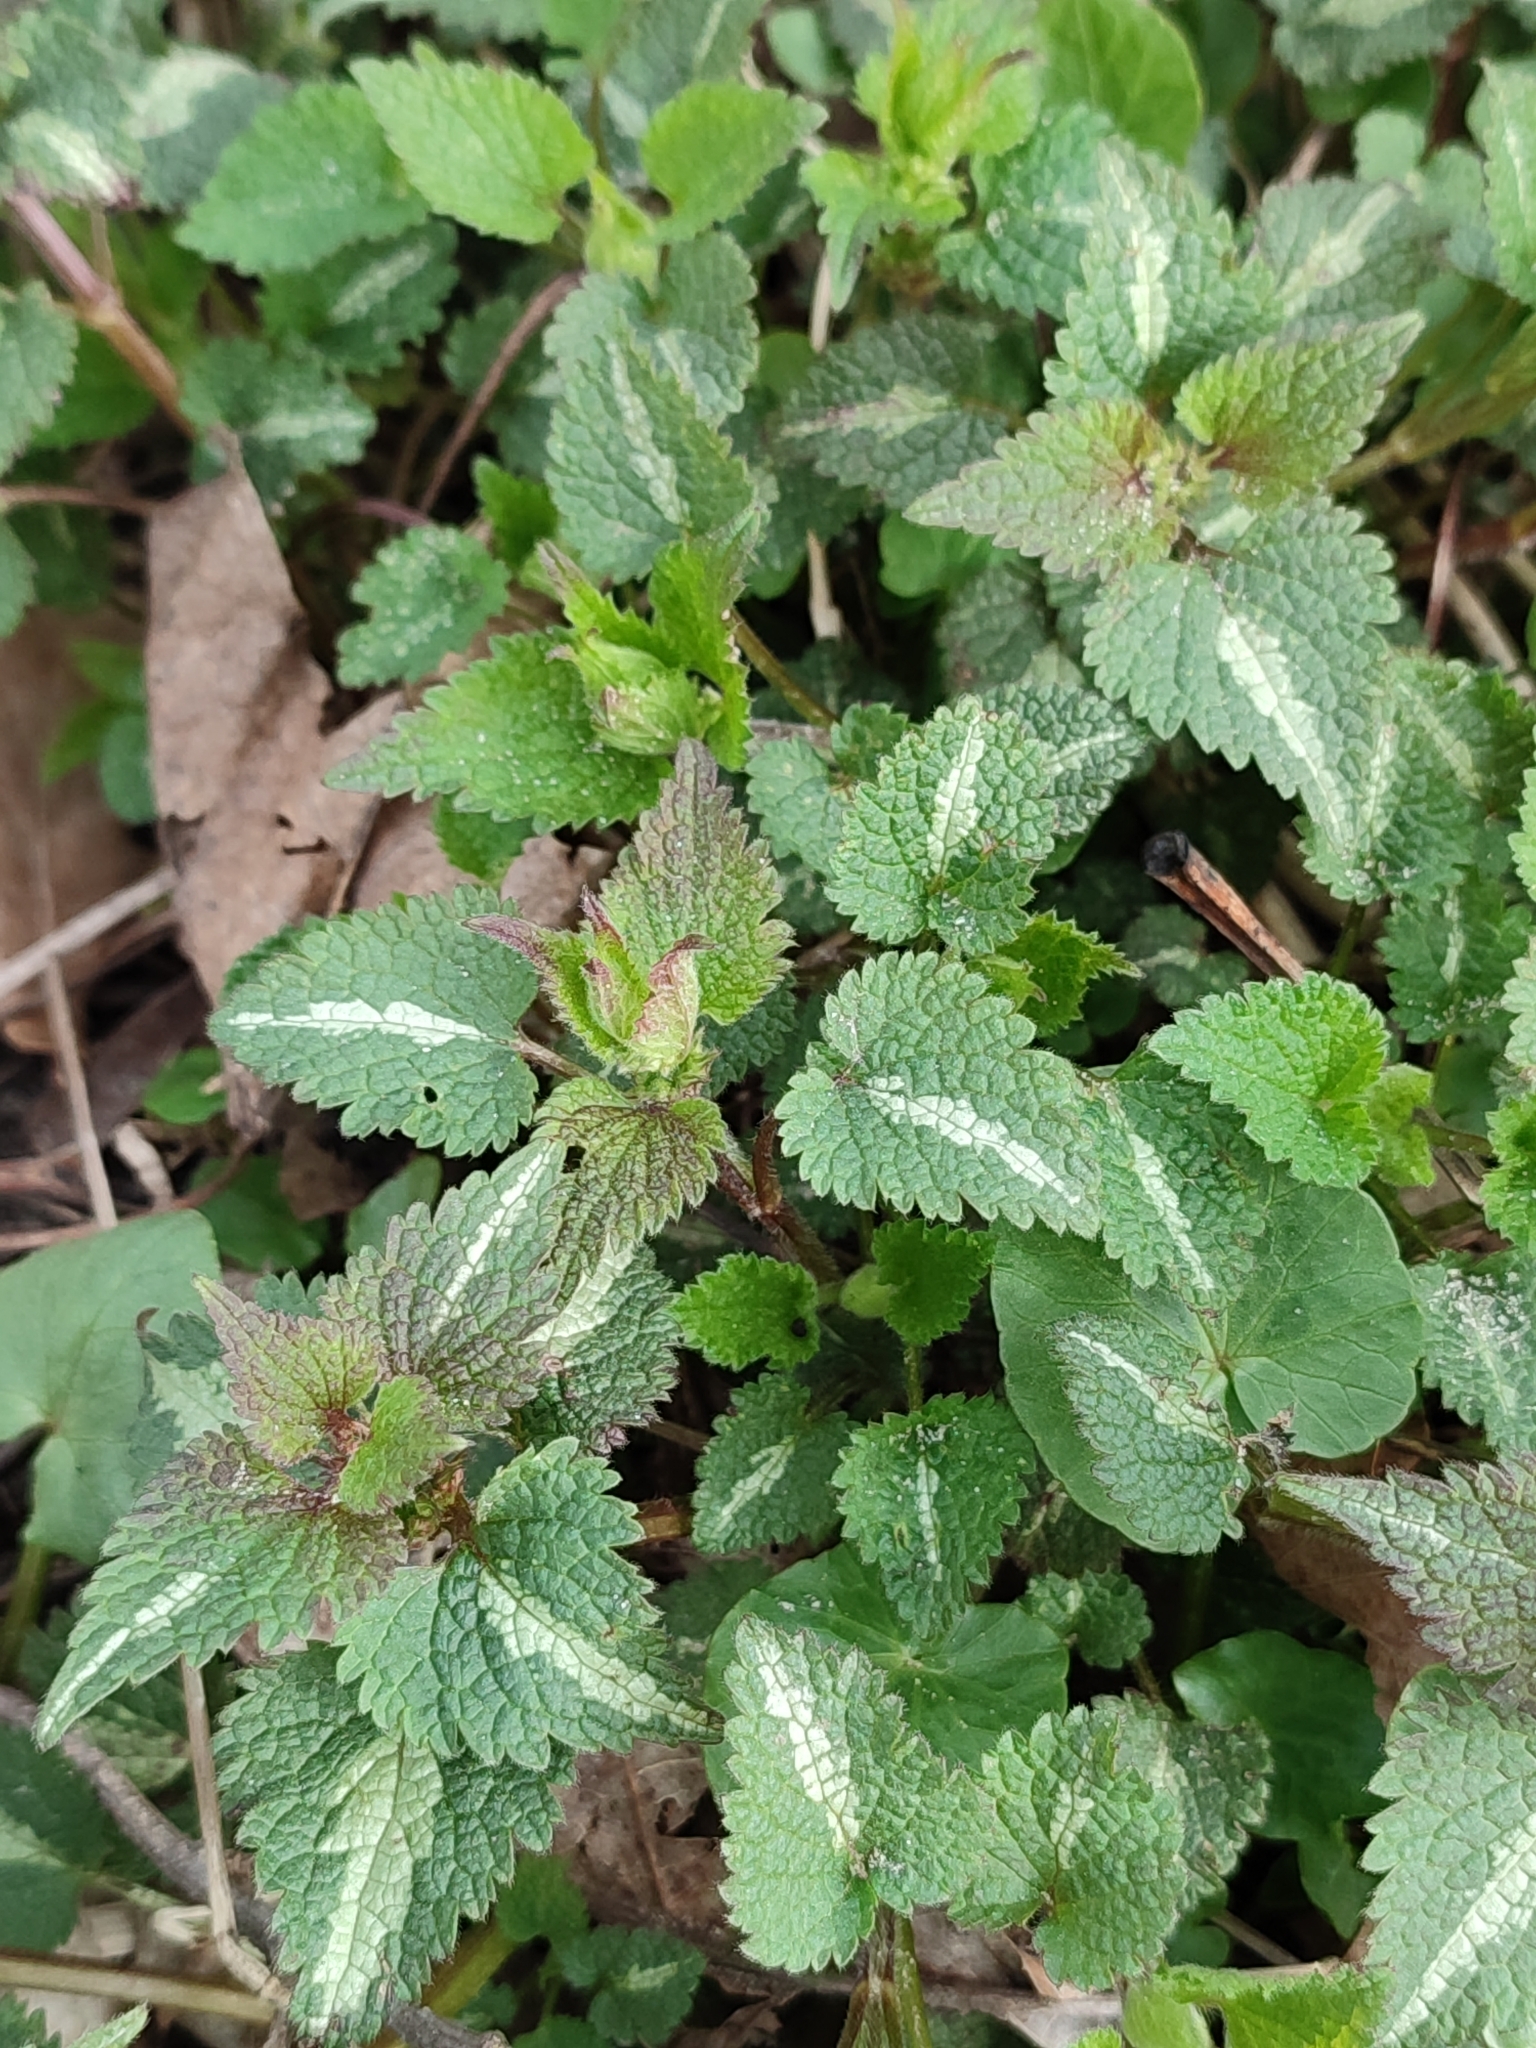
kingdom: Plantae
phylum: Tracheophyta
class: Magnoliopsida
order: Lamiales
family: Lamiaceae
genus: Lamium
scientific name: Lamium maculatum
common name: Spotted dead-nettle
